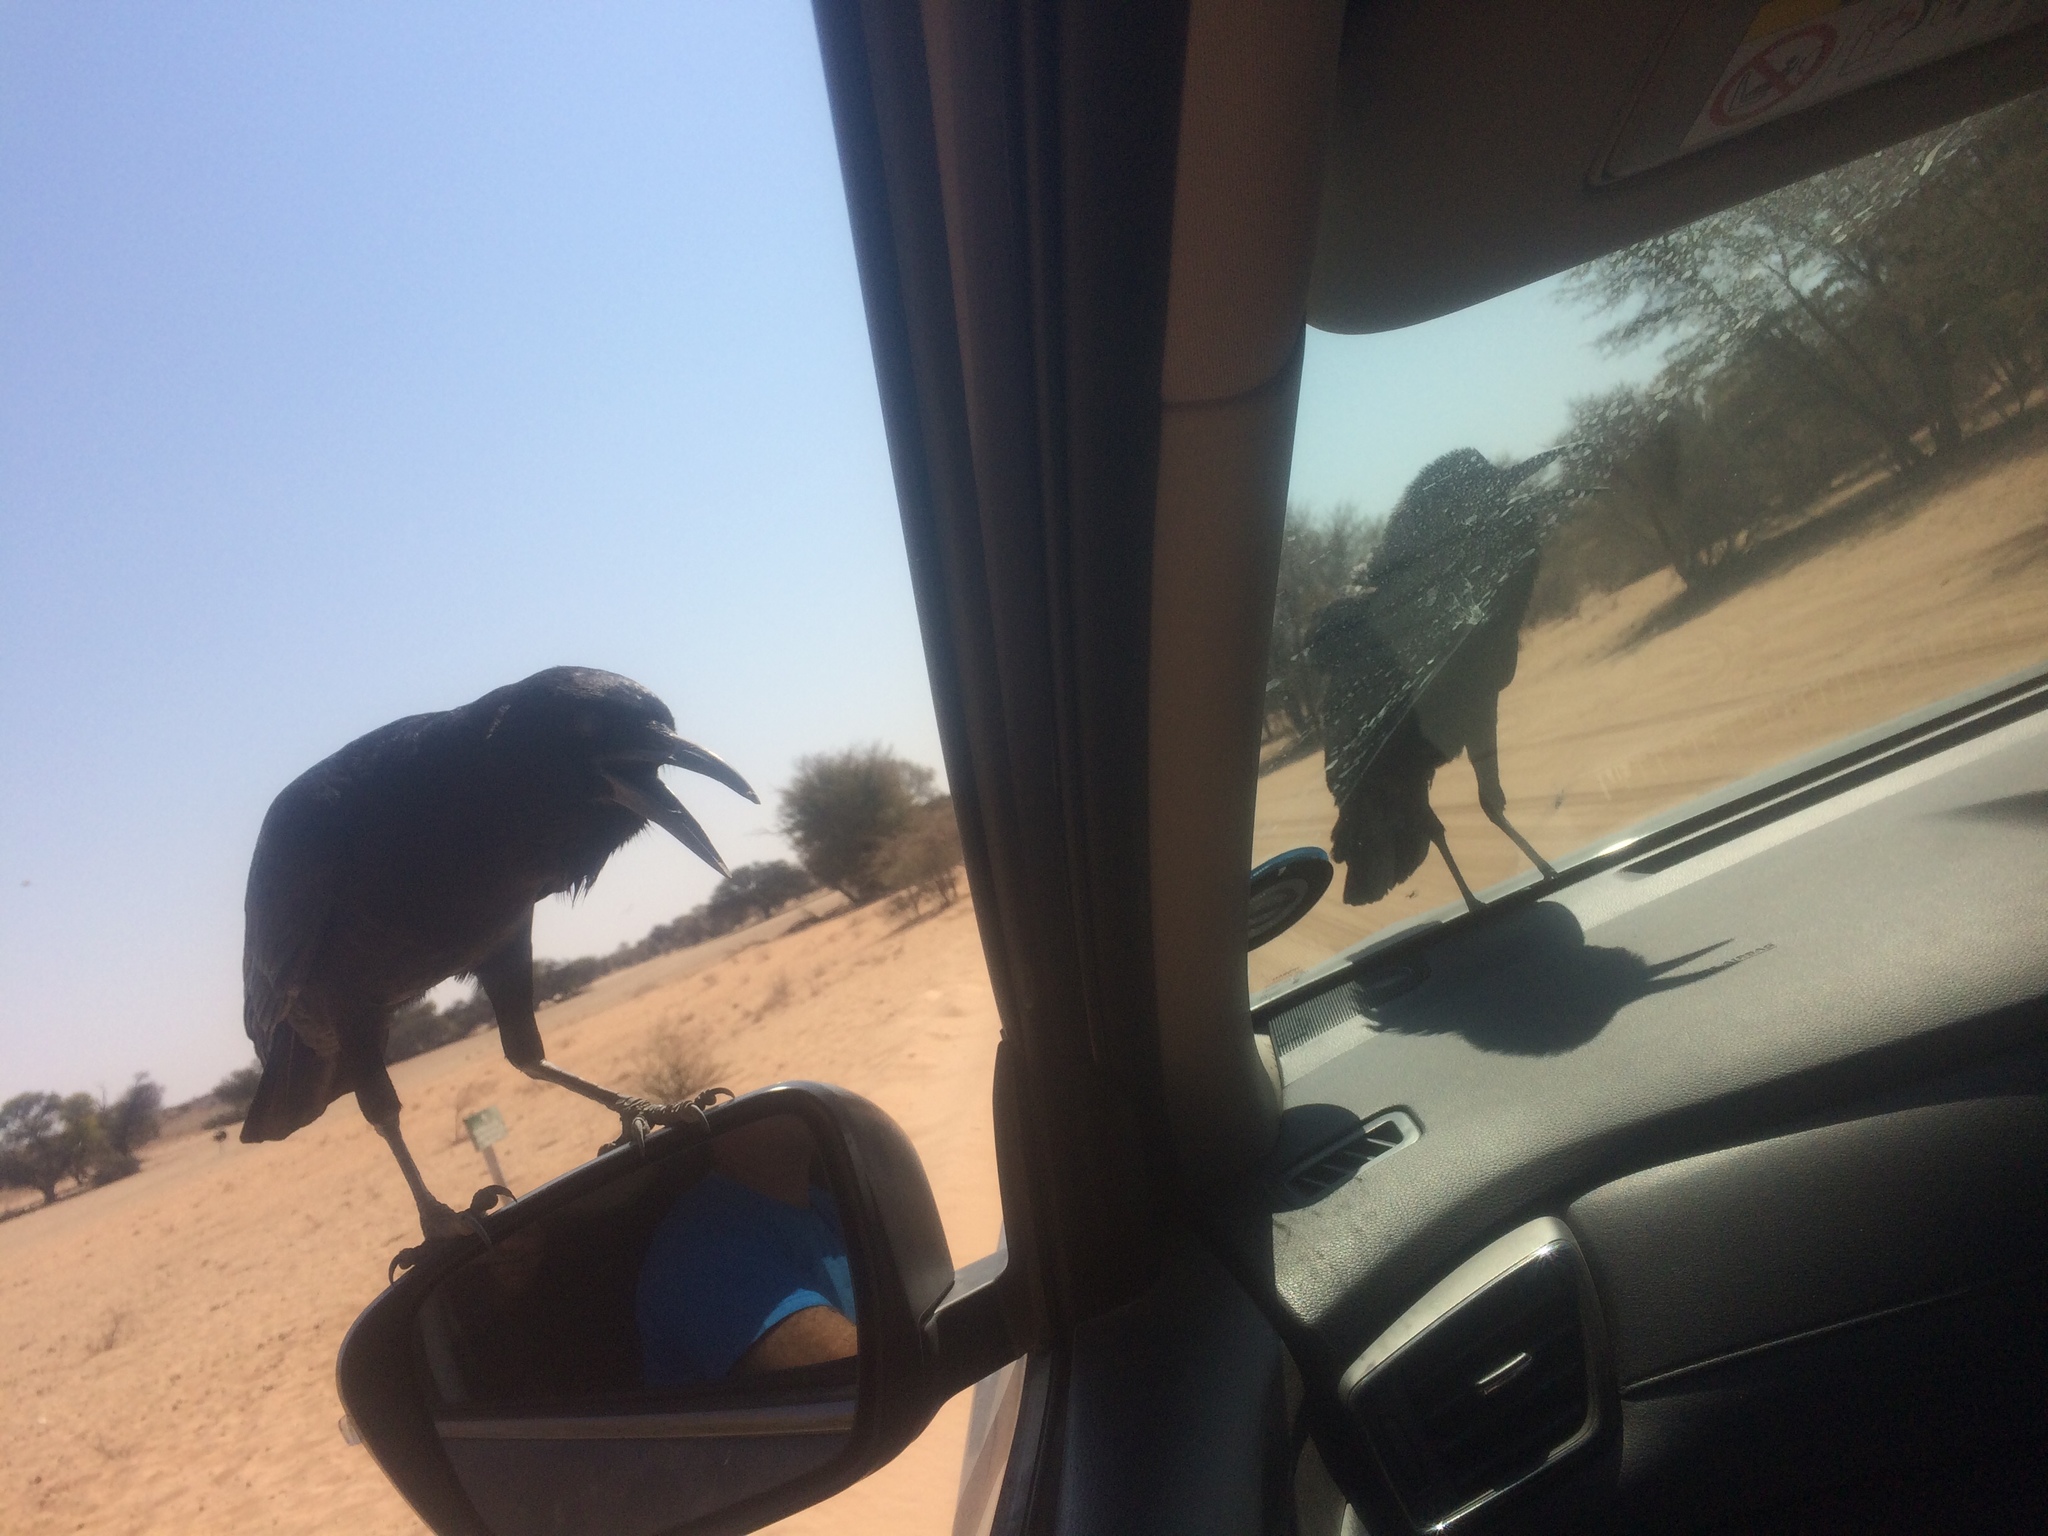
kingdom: Animalia
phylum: Chordata
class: Aves
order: Passeriformes
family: Corvidae
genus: Corvus
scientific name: Corvus capensis
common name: Cape crow
